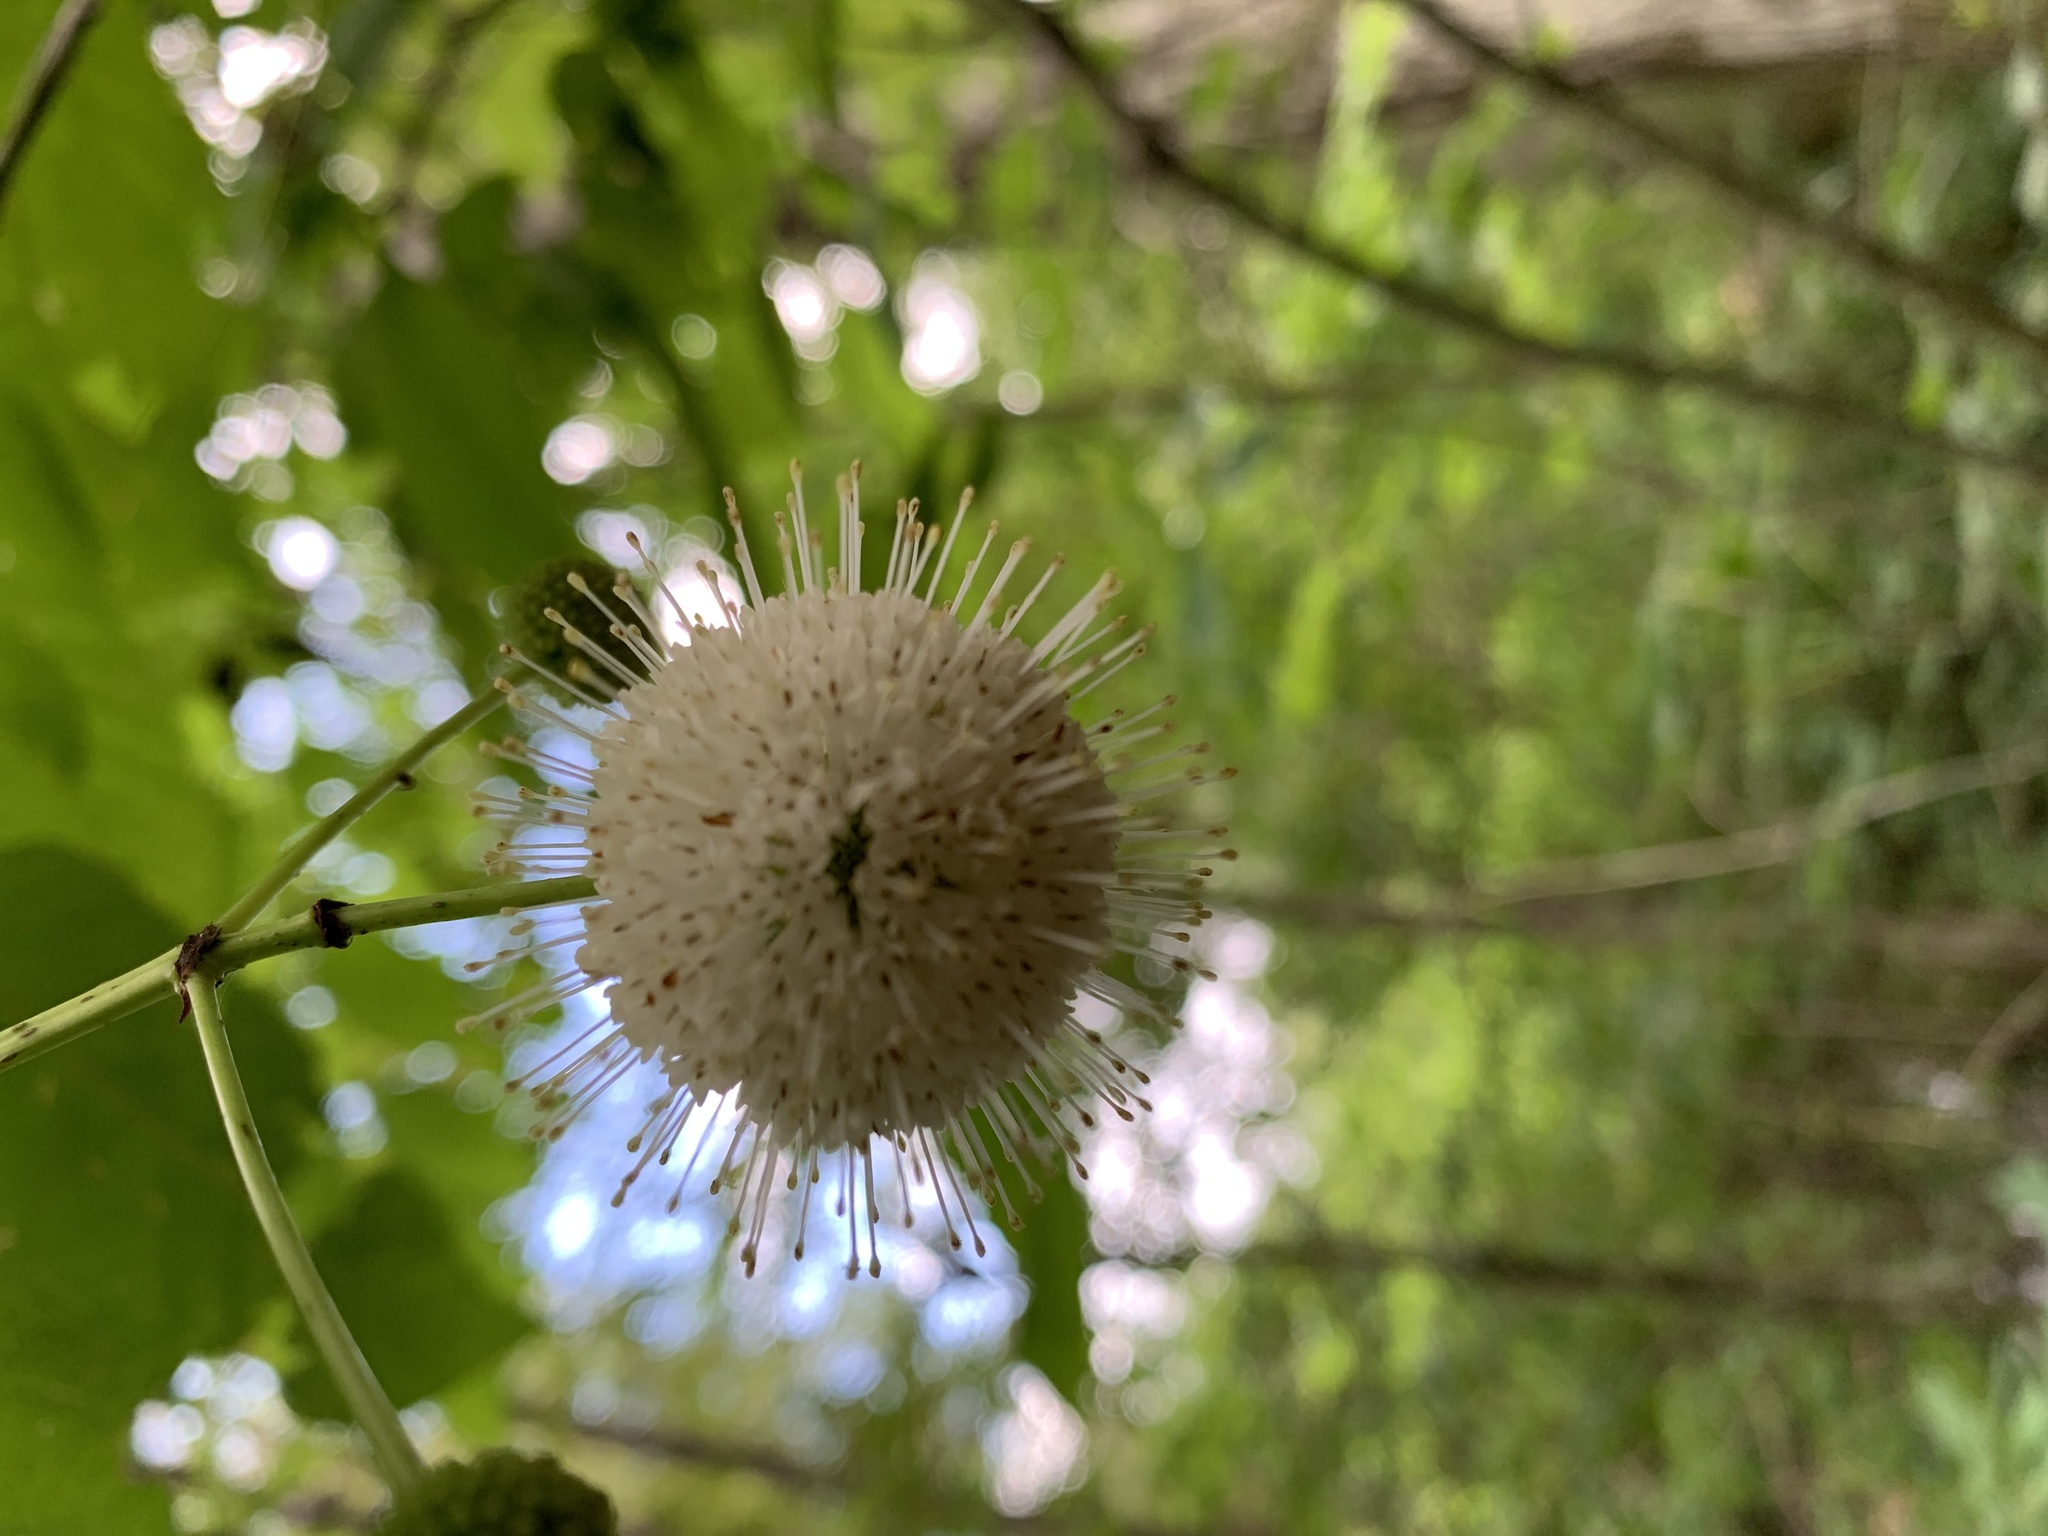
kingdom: Plantae
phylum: Tracheophyta
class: Magnoliopsida
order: Gentianales
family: Rubiaceae
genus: Cephalanthus
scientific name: Cephalanthus occidentalis
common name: Button-willow
